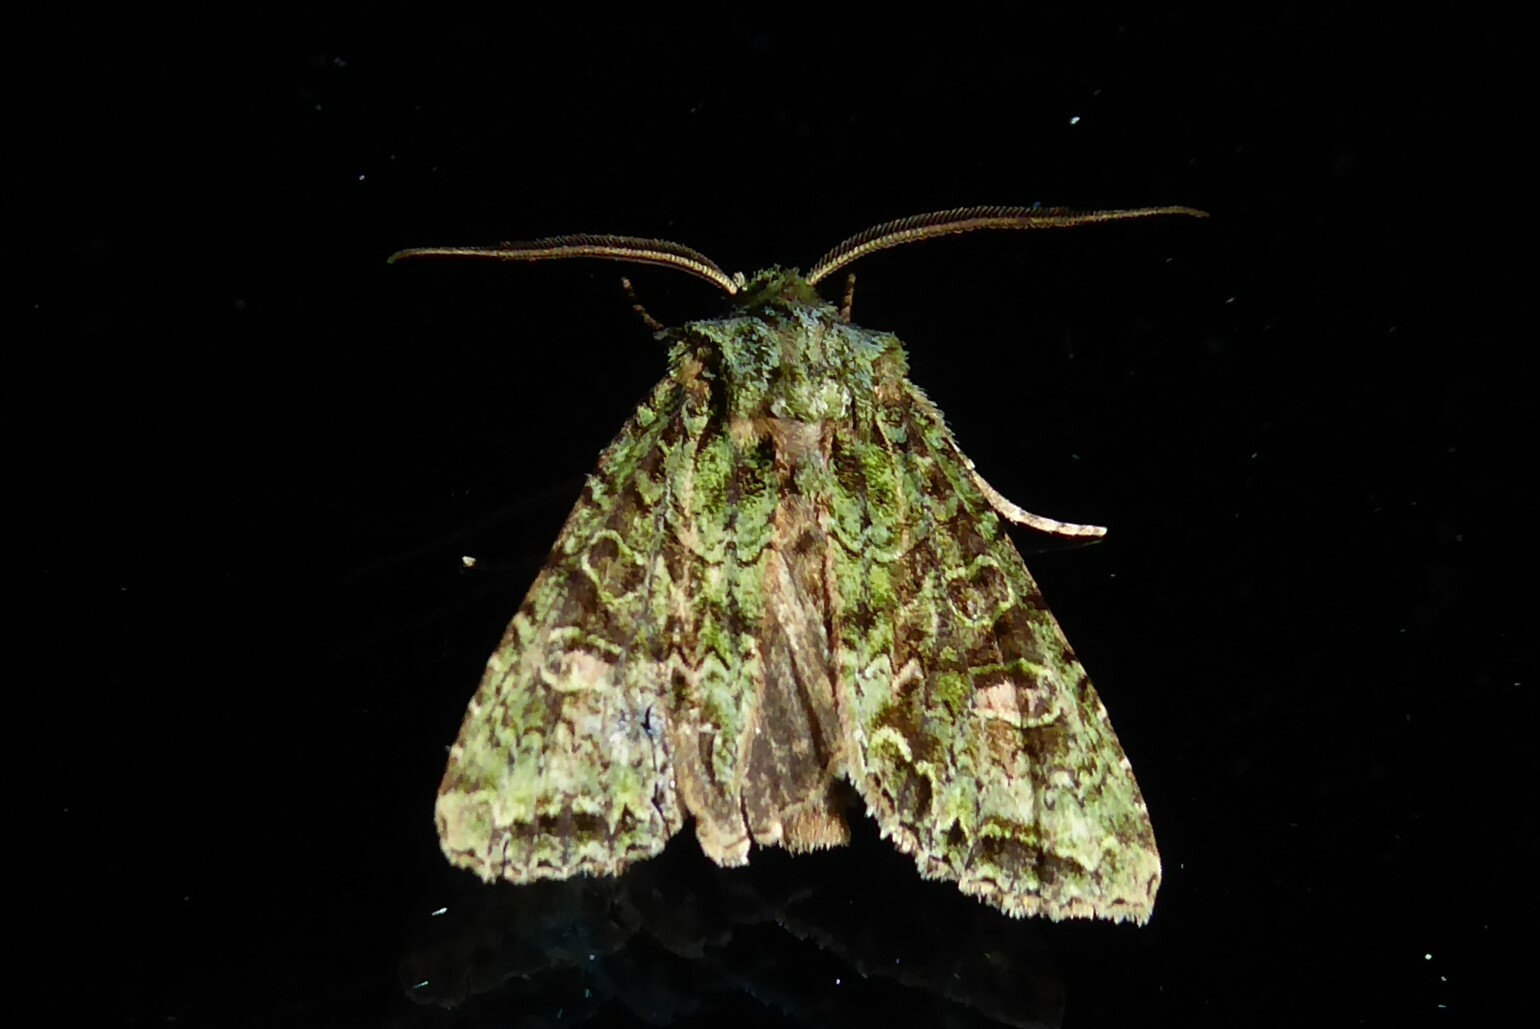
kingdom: Animalia
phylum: Arthropoda
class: Insecta
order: Lepidoptera
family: Noctuidae
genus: Ichneutica
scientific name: Ichneutica
